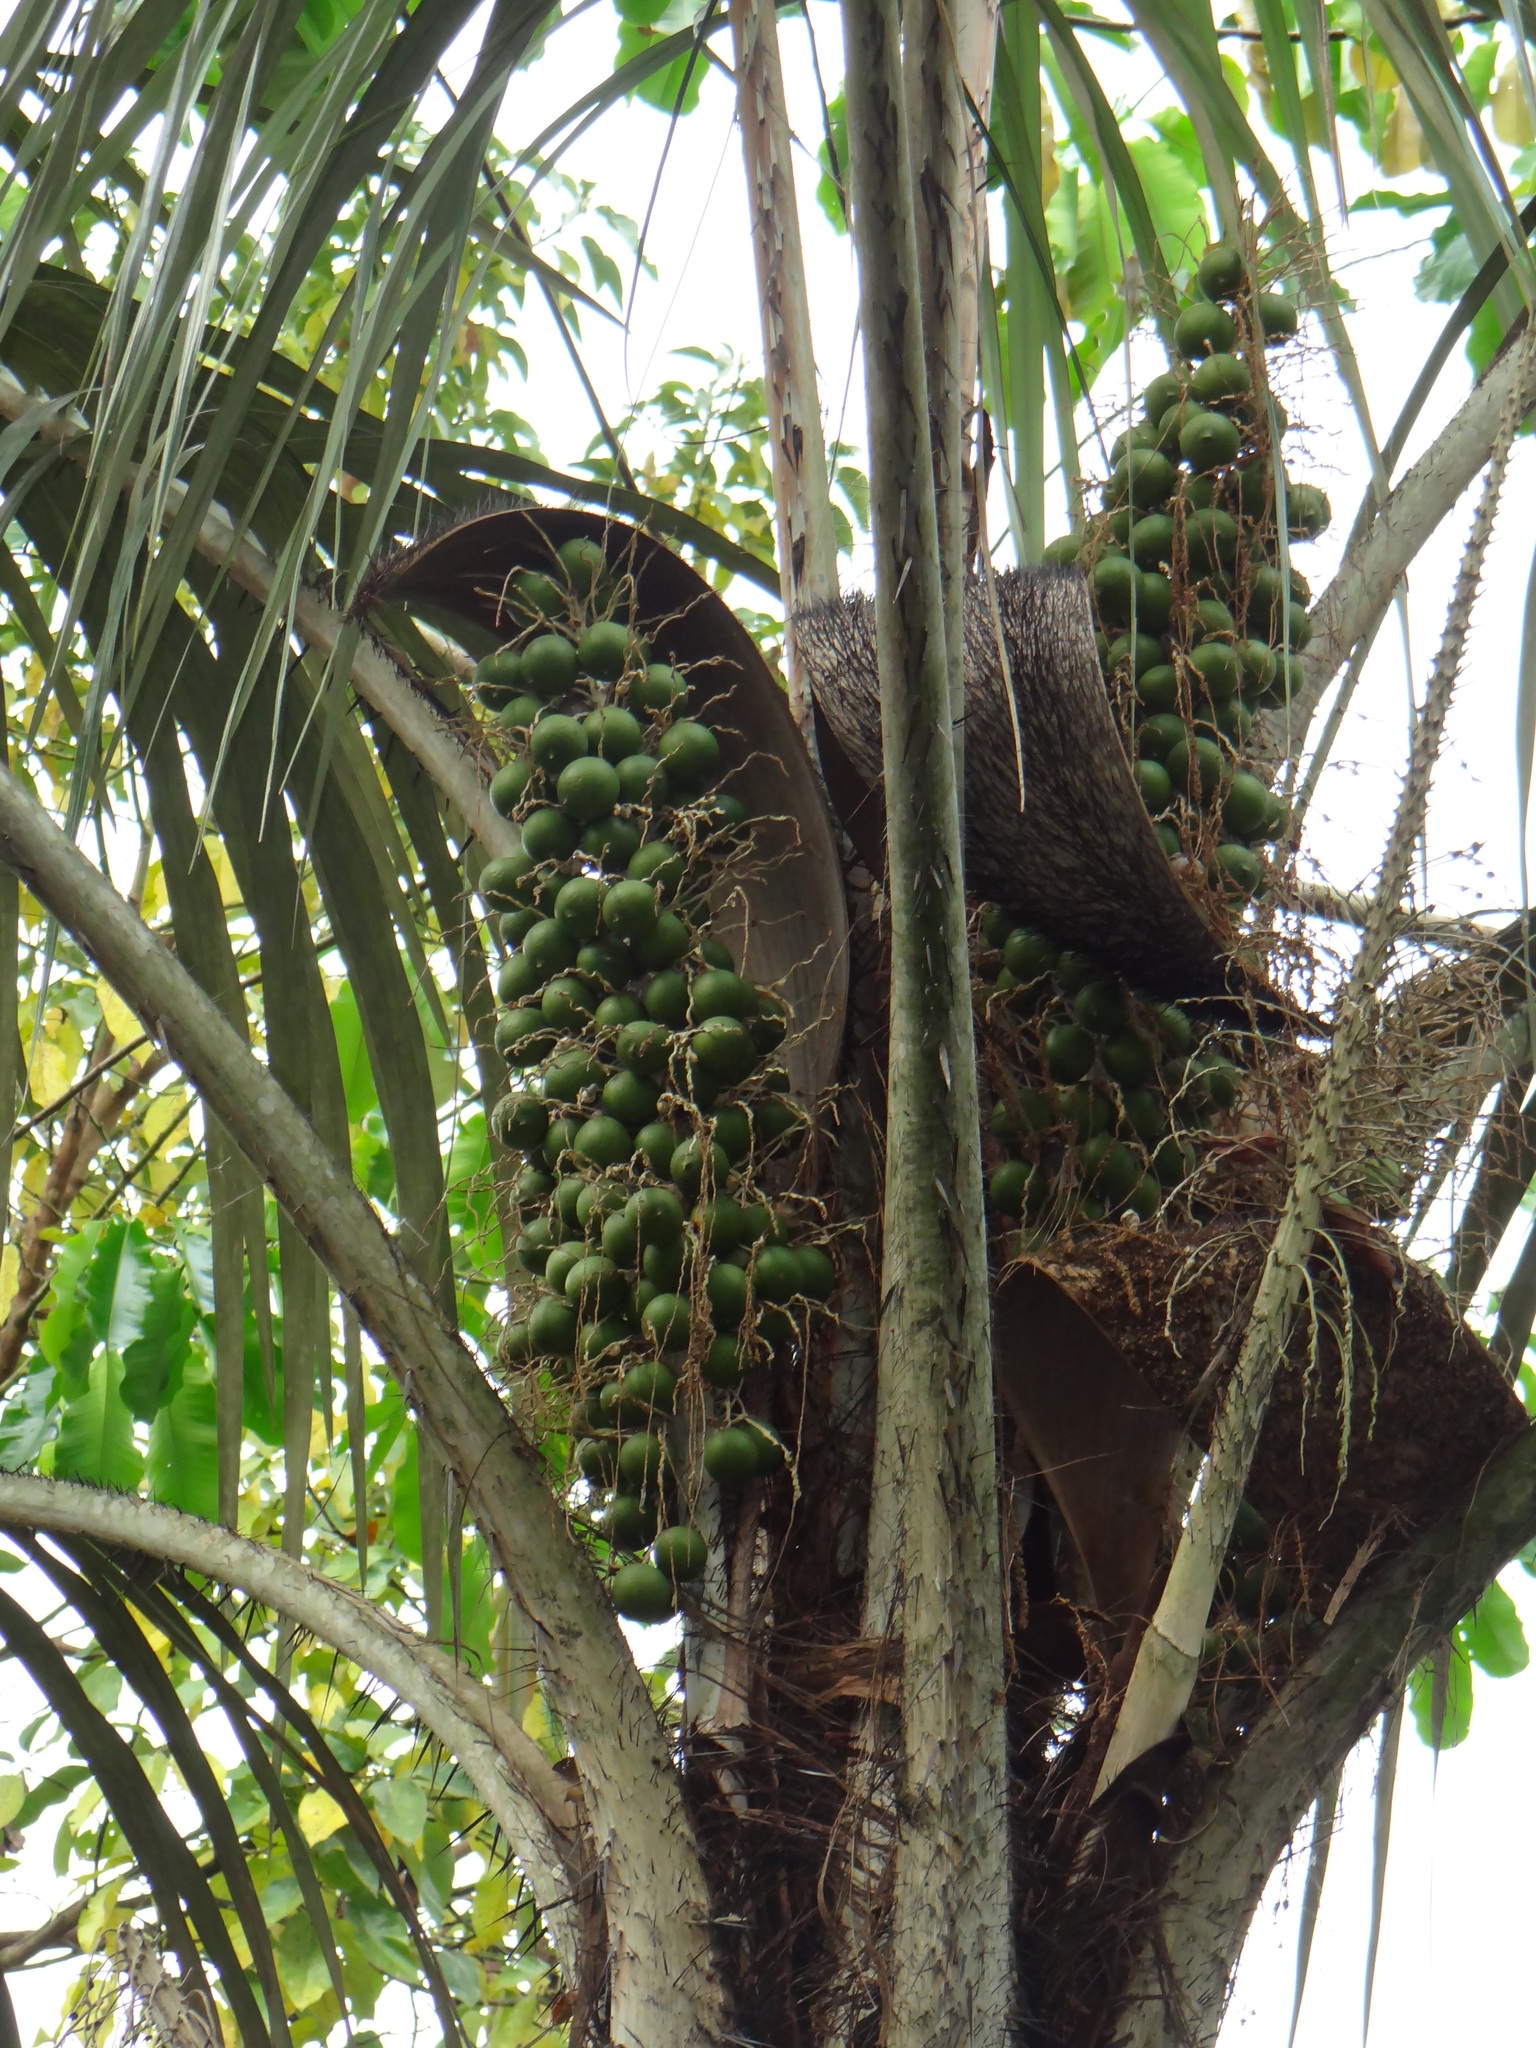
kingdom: Plantae
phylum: Tracheophyta
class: Liliopsida
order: Arecales
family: Arecaceae
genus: Acrocomia
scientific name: Acrocomia aculeata
